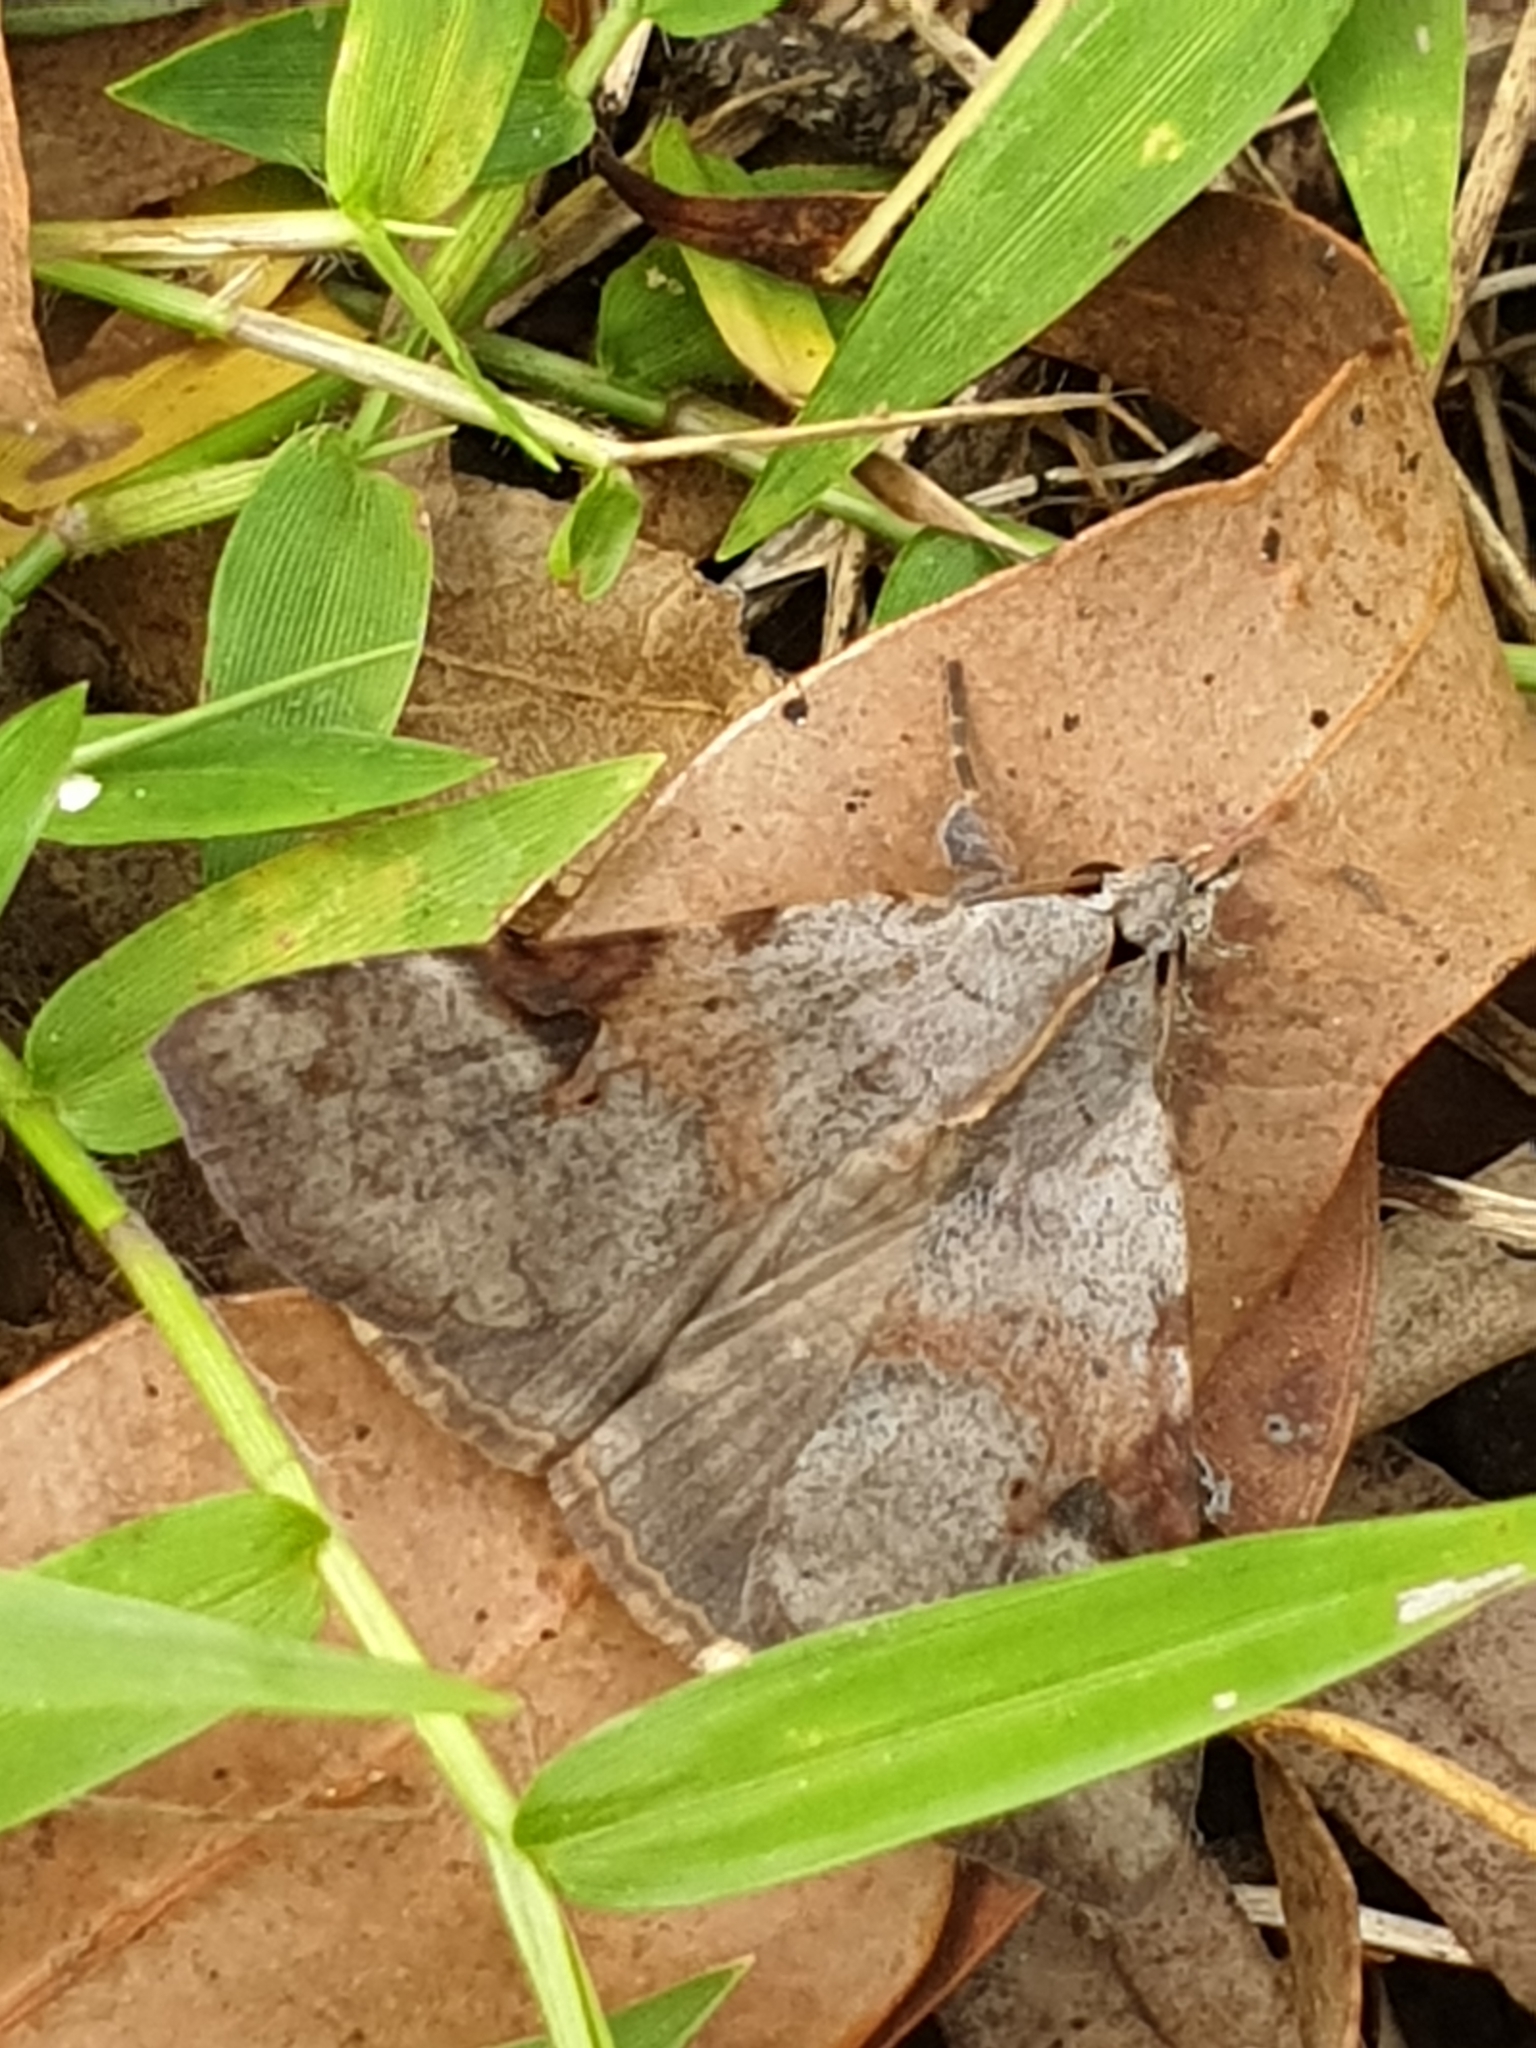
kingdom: Animalia
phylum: Arthropoda
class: Insecta
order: Lepidoptera
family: Erebidae
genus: Avatha
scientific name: Avatha discolor
